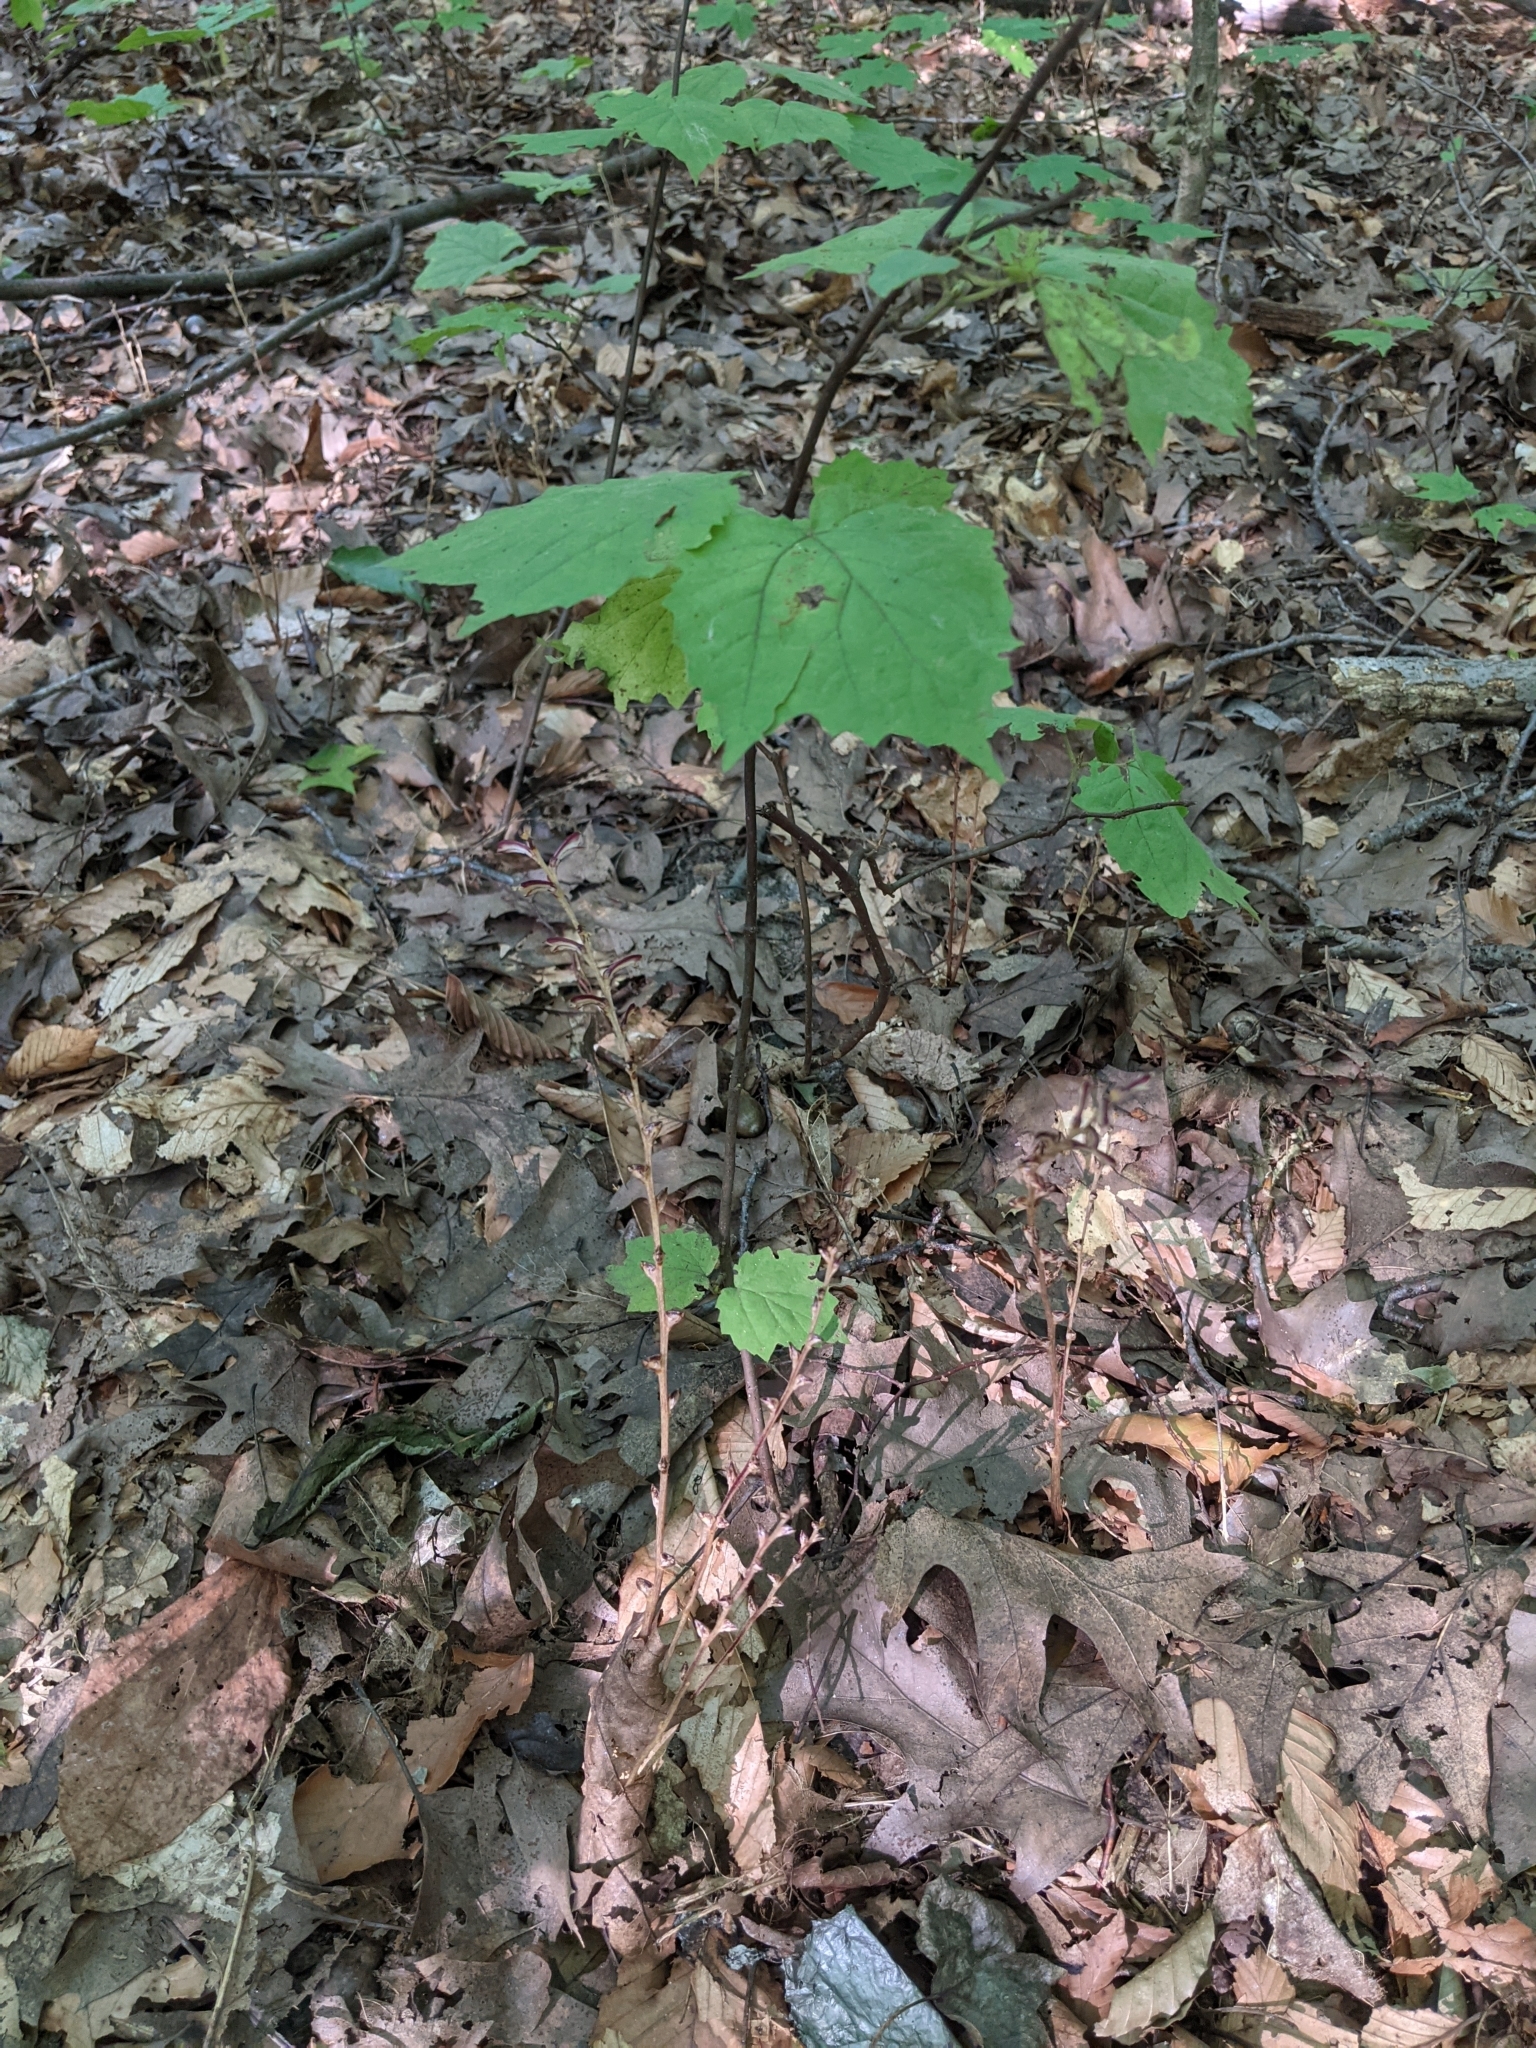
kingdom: Plantae
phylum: Tracheophyta
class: Magnoliopsida
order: Lamiales
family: Orobanchaceae
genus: Epifagus
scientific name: Epifagus virginiana
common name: Beechdrops
